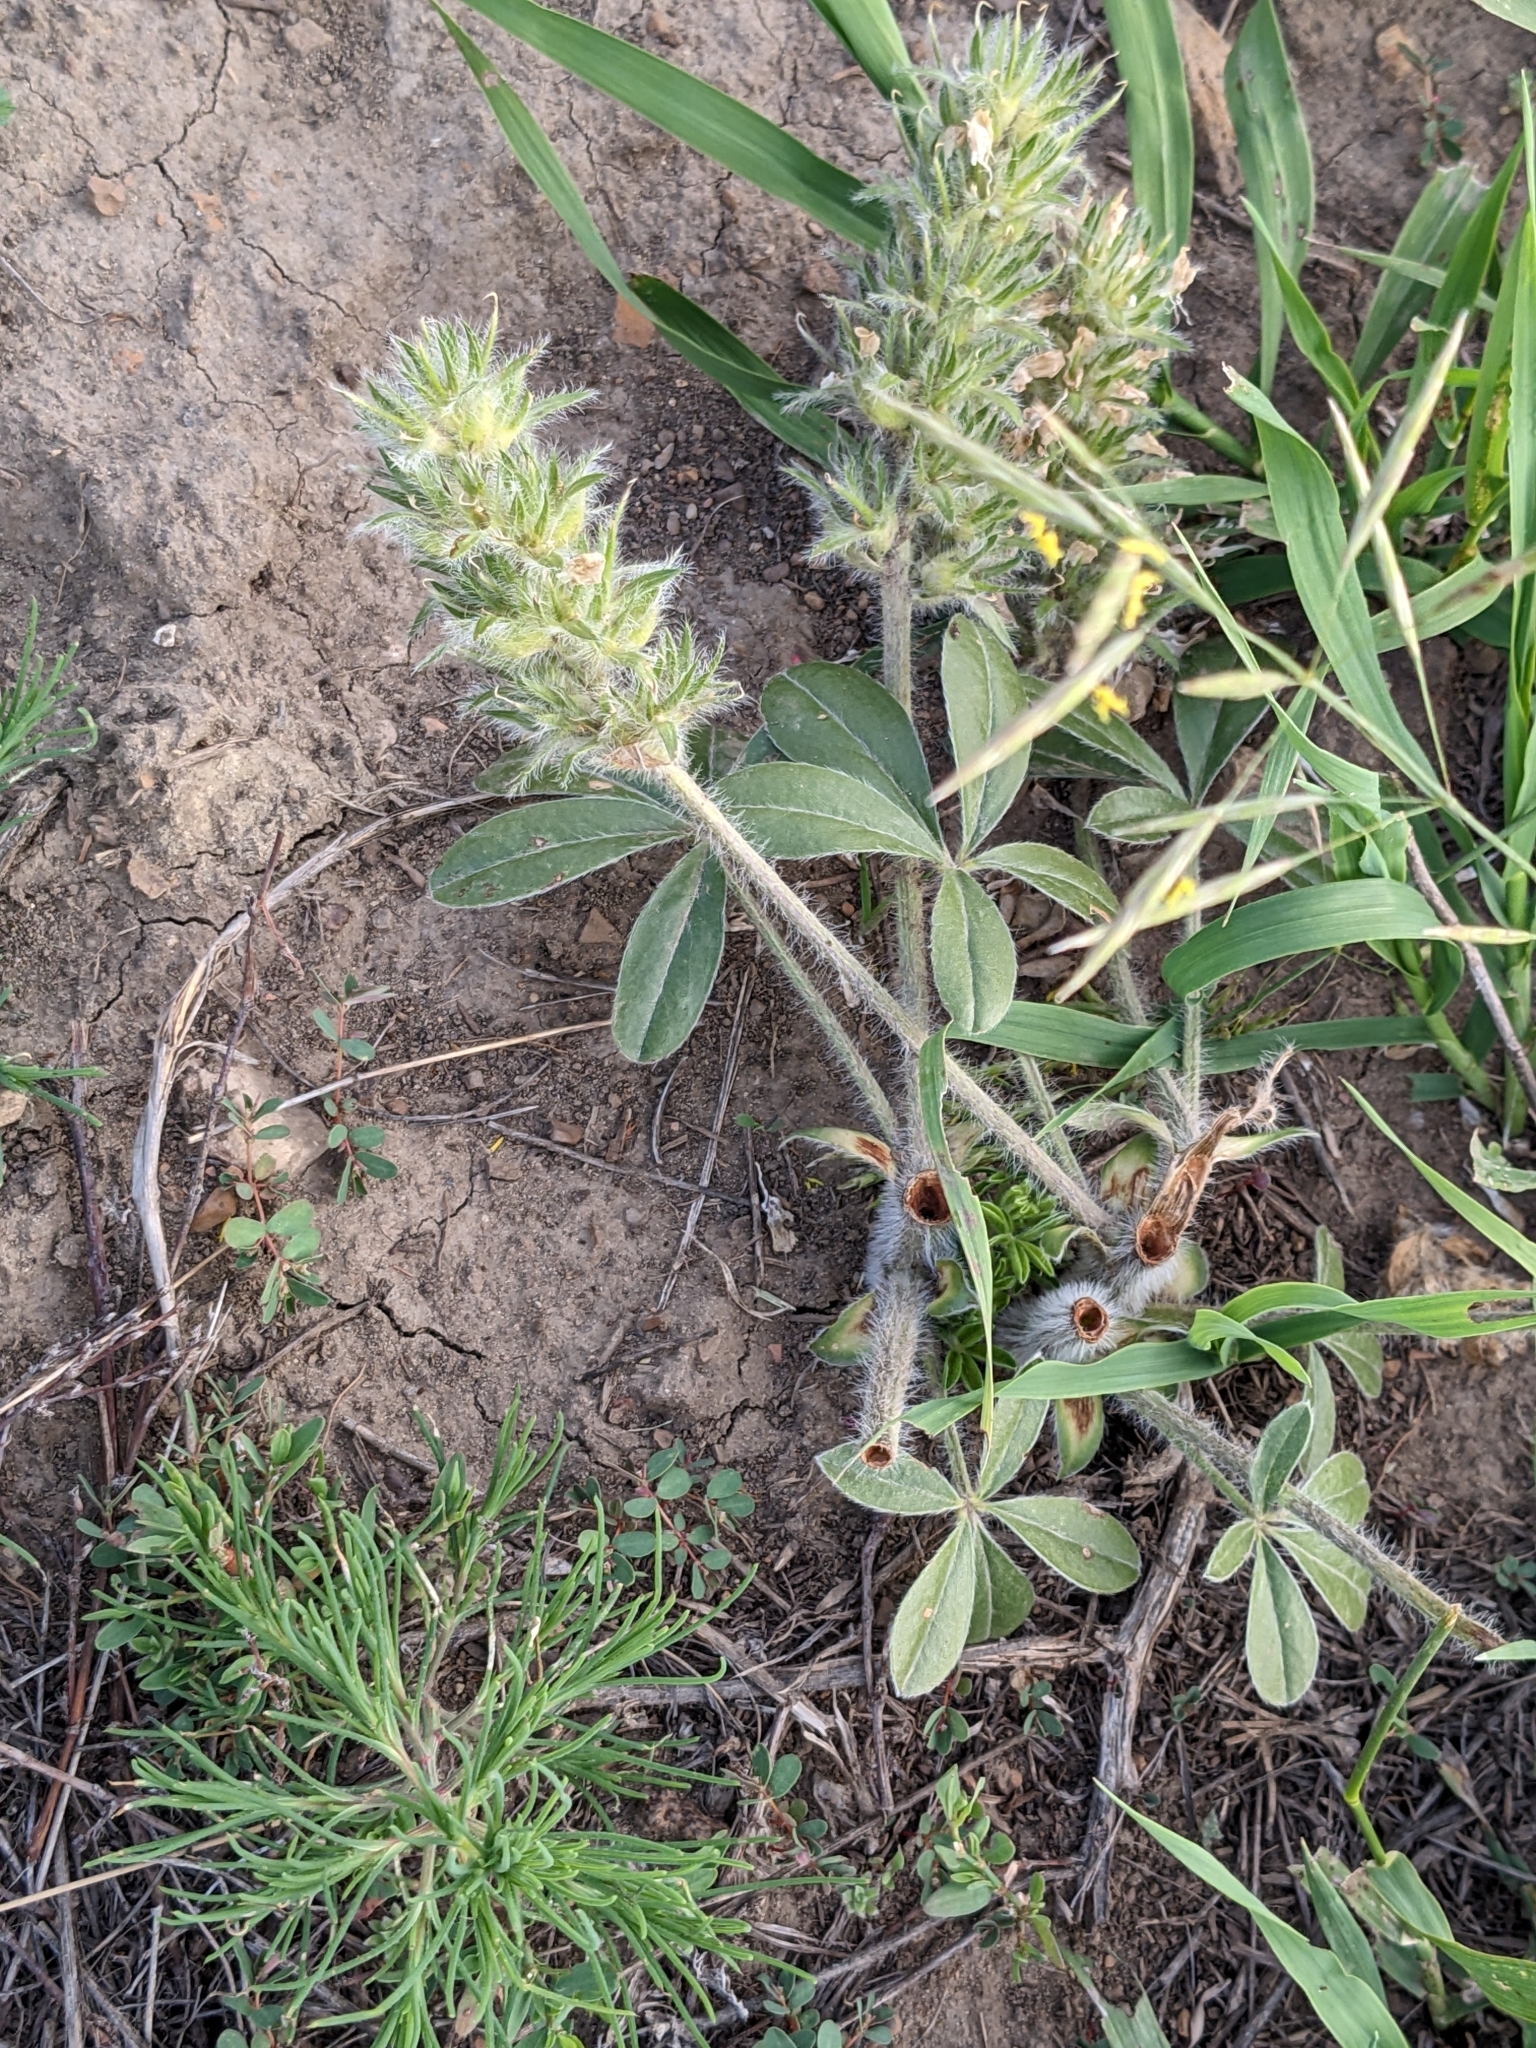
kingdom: Plantae
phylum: Tracheophyta
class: Magnoliopsida
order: Fabales
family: Fabaceae
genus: Pediomelum
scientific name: Pediomelum esculentum
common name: Indian-turnip
